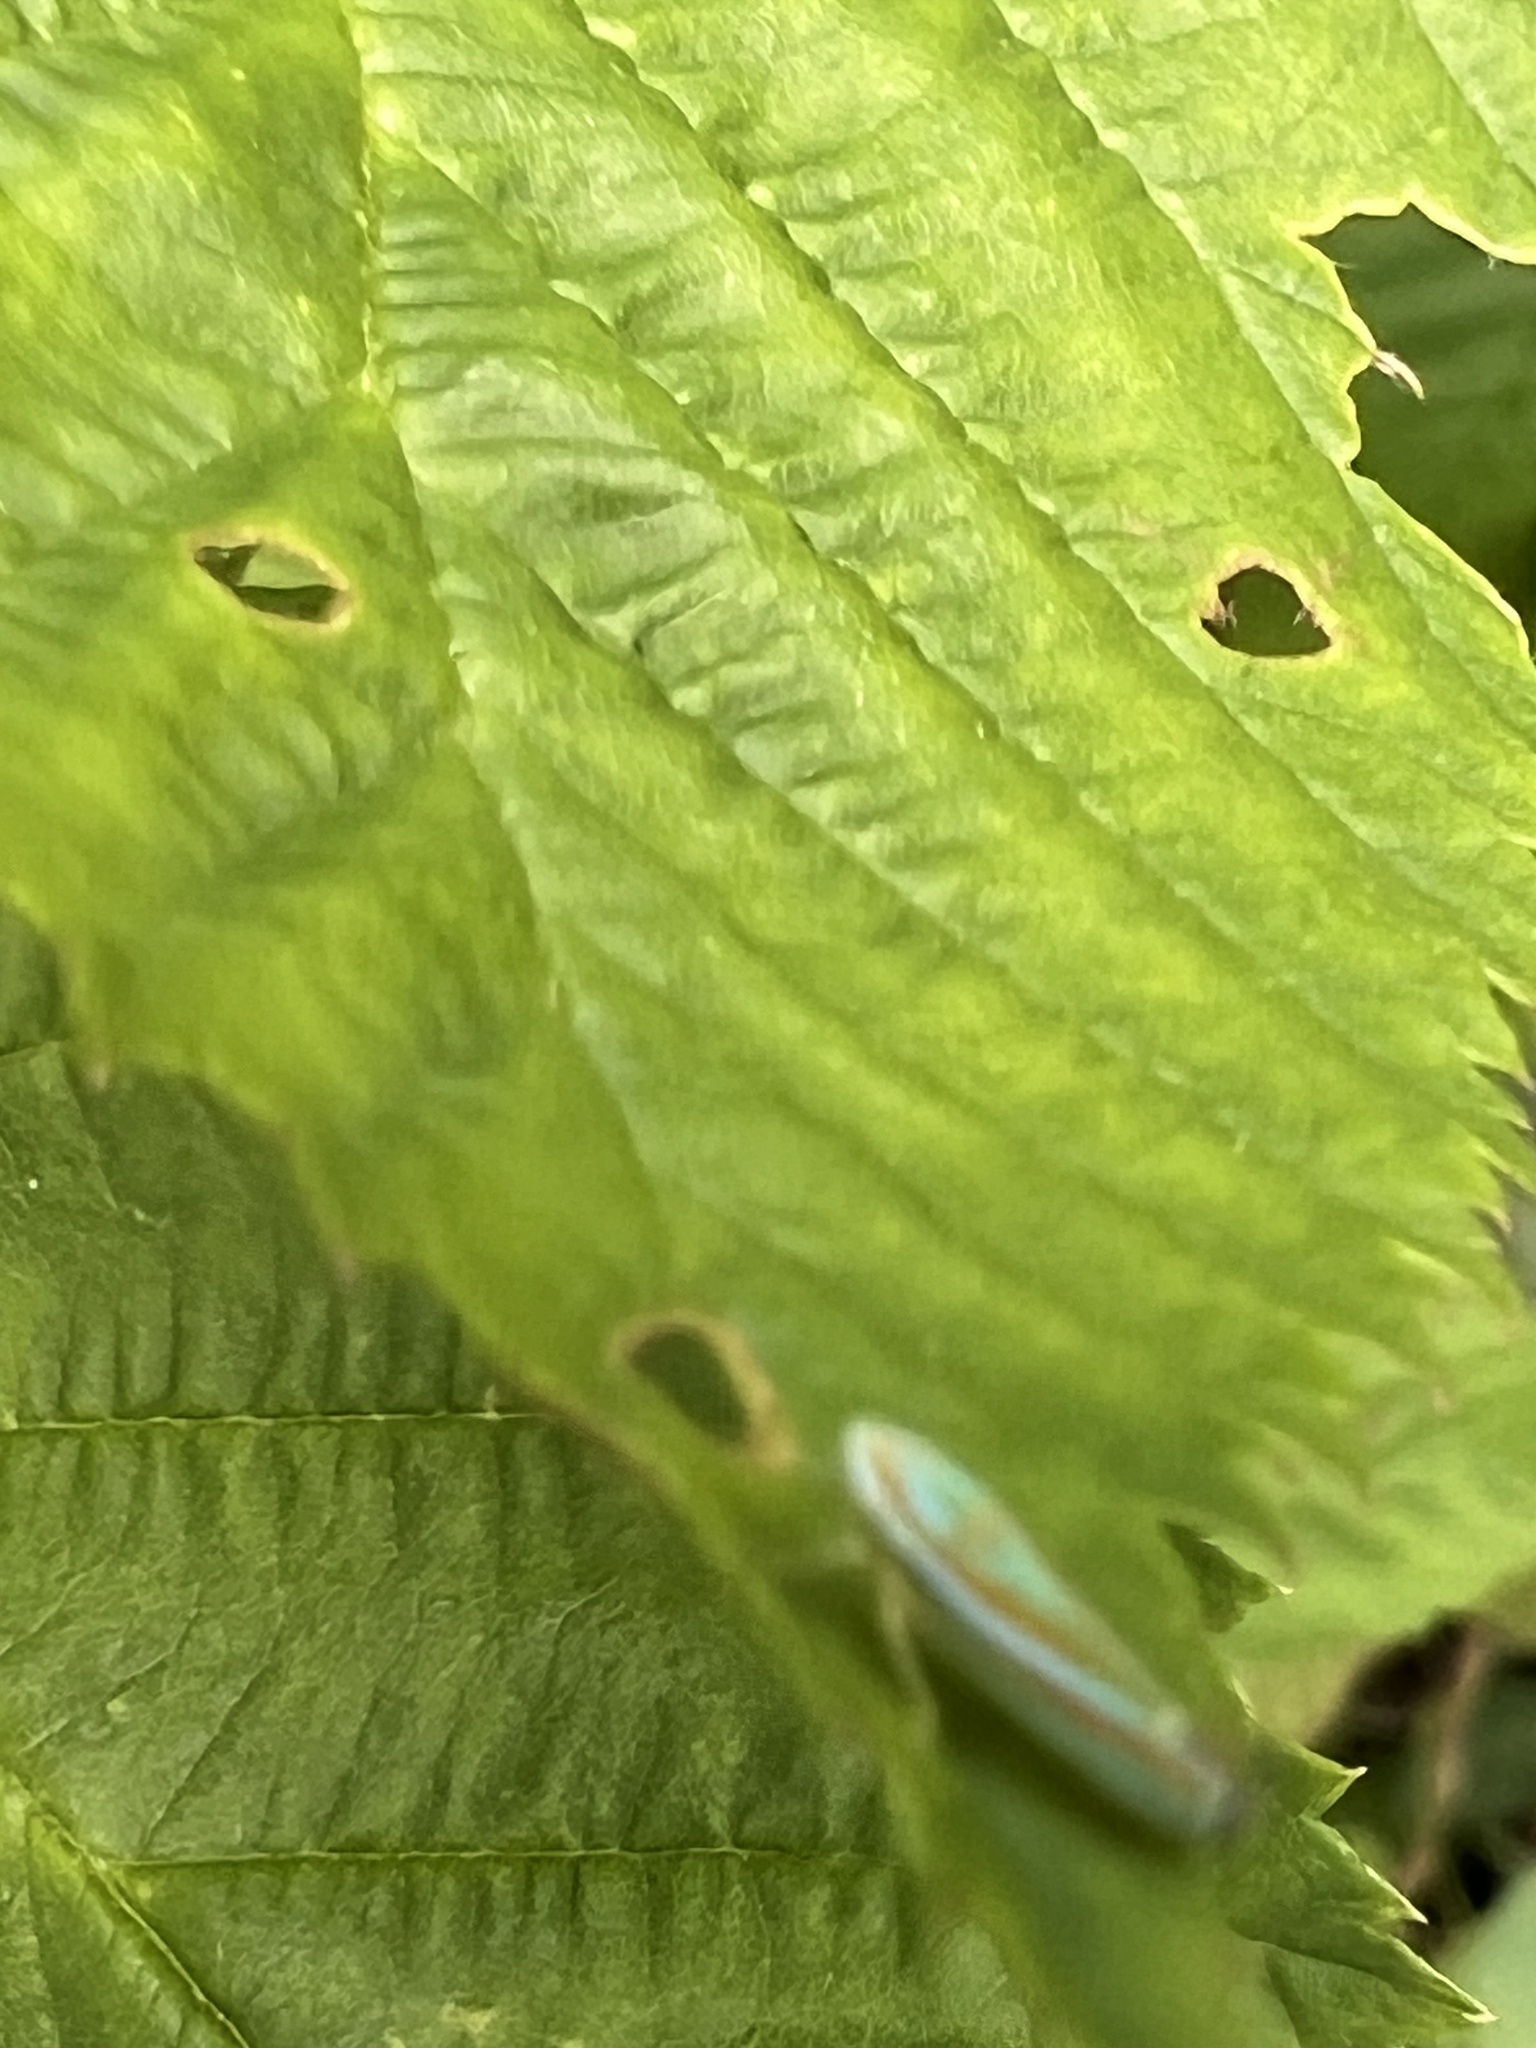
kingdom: Animalia
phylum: Arthropoda
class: Insecta
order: Hemiptera
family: Cicadellidae
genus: Graphocephala
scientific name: Graphocephala versuta
